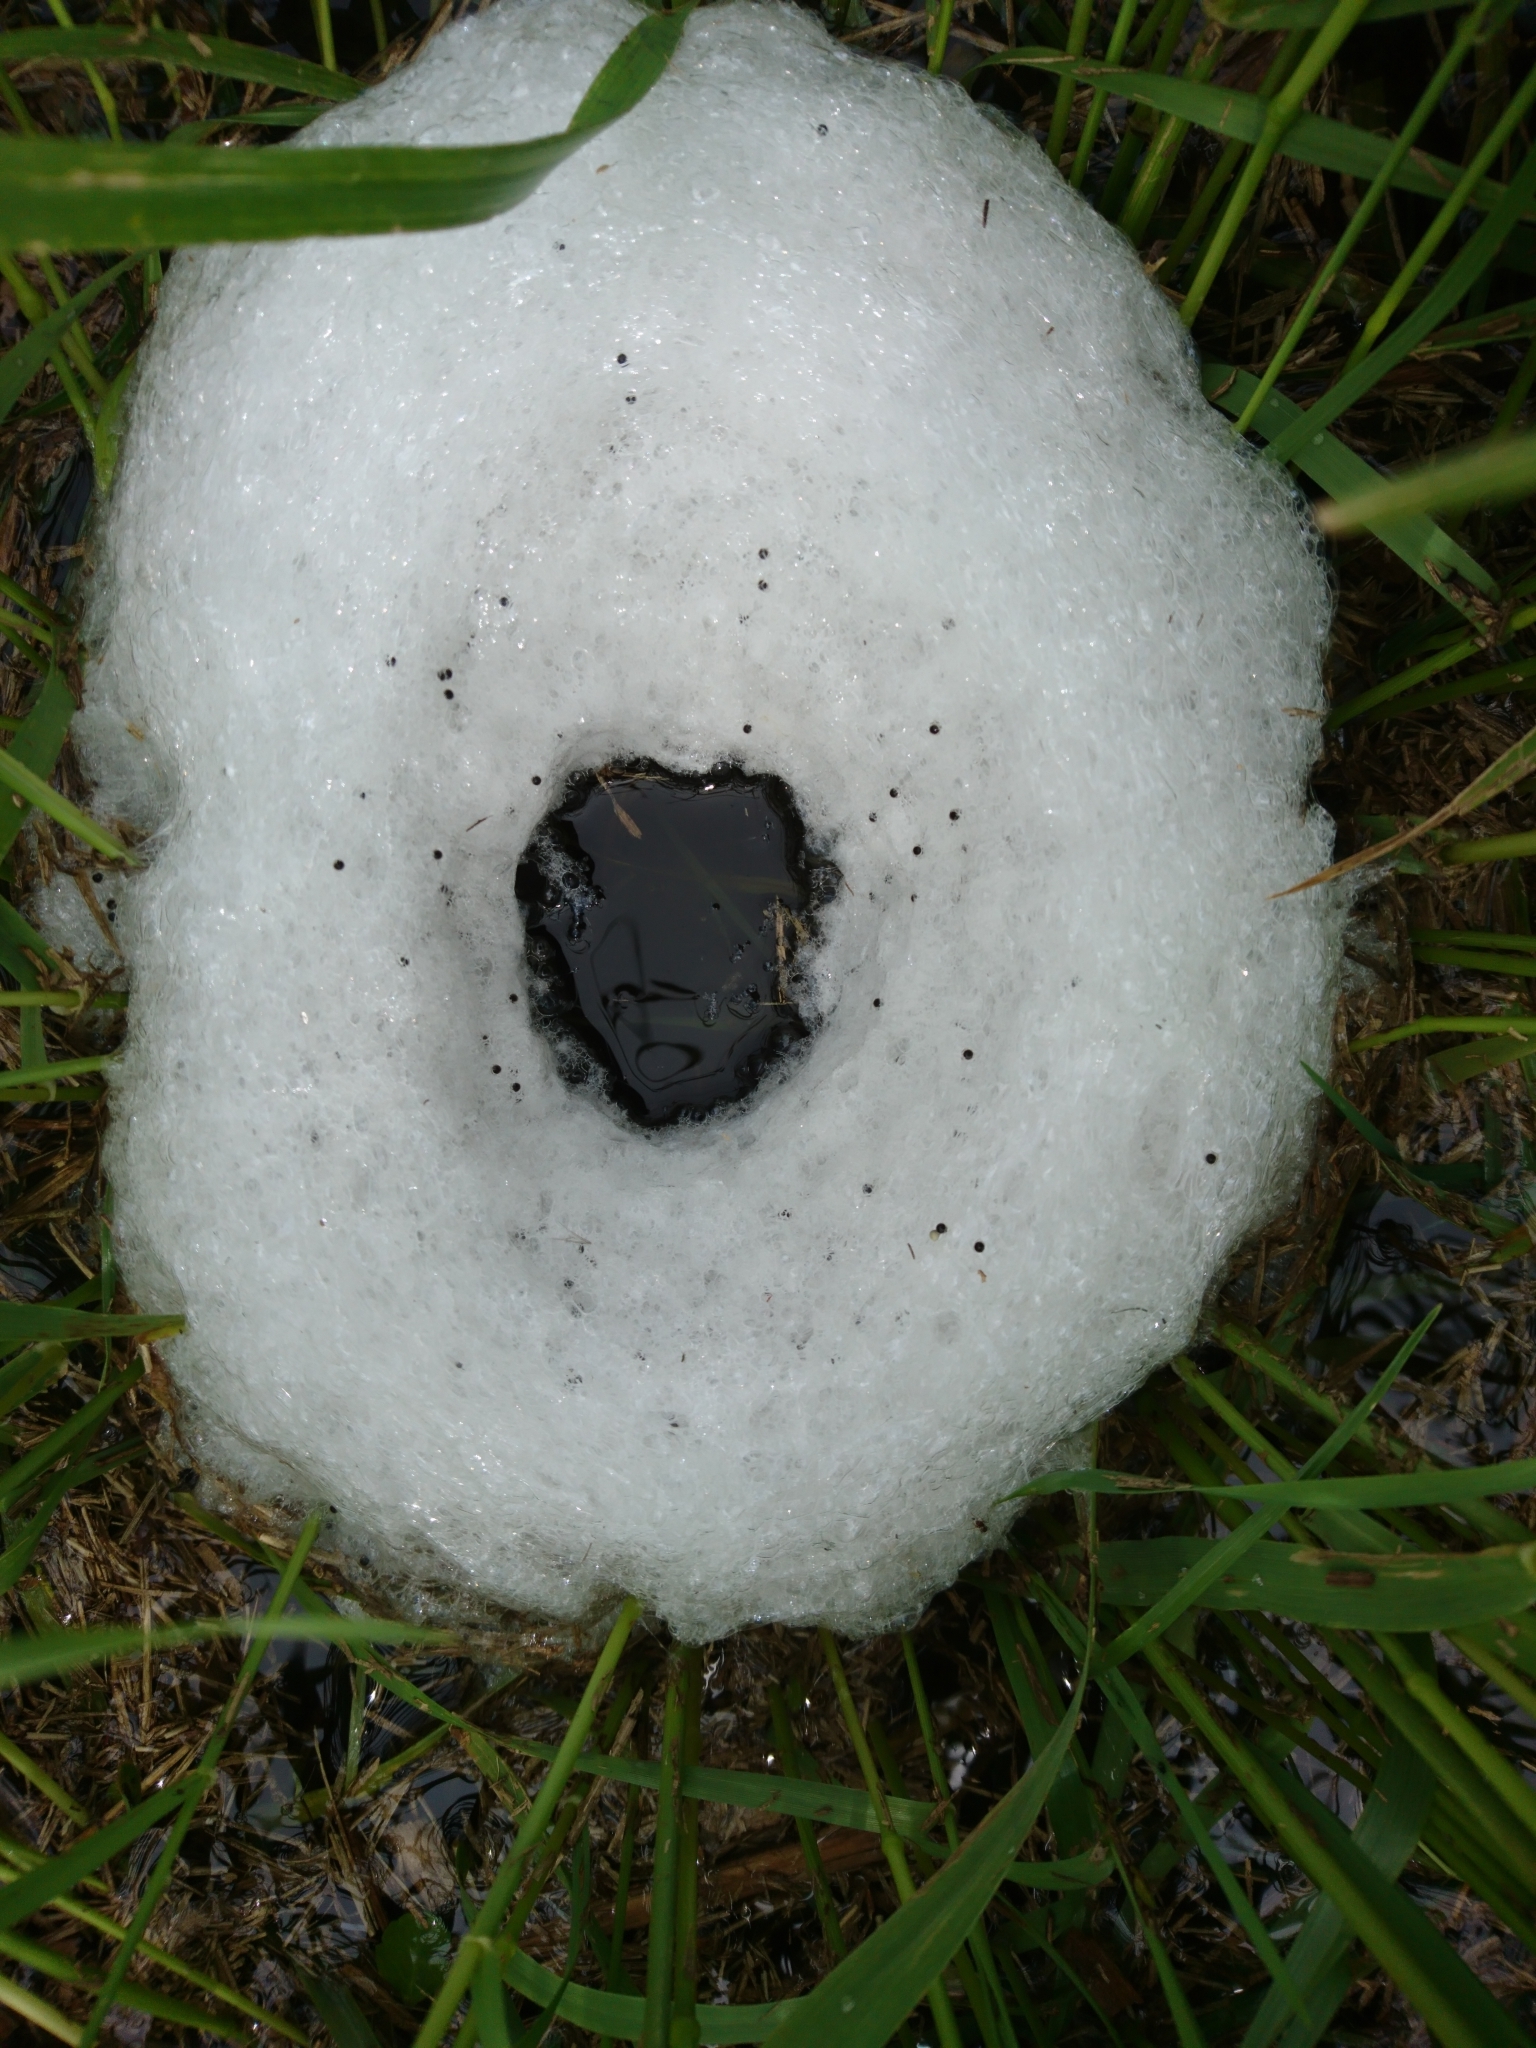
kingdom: Animalia
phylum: Chordata
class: Amphibia
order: Anura
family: Leptodactylidae
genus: Leptodactylus
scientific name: Leptodactylus luctator
